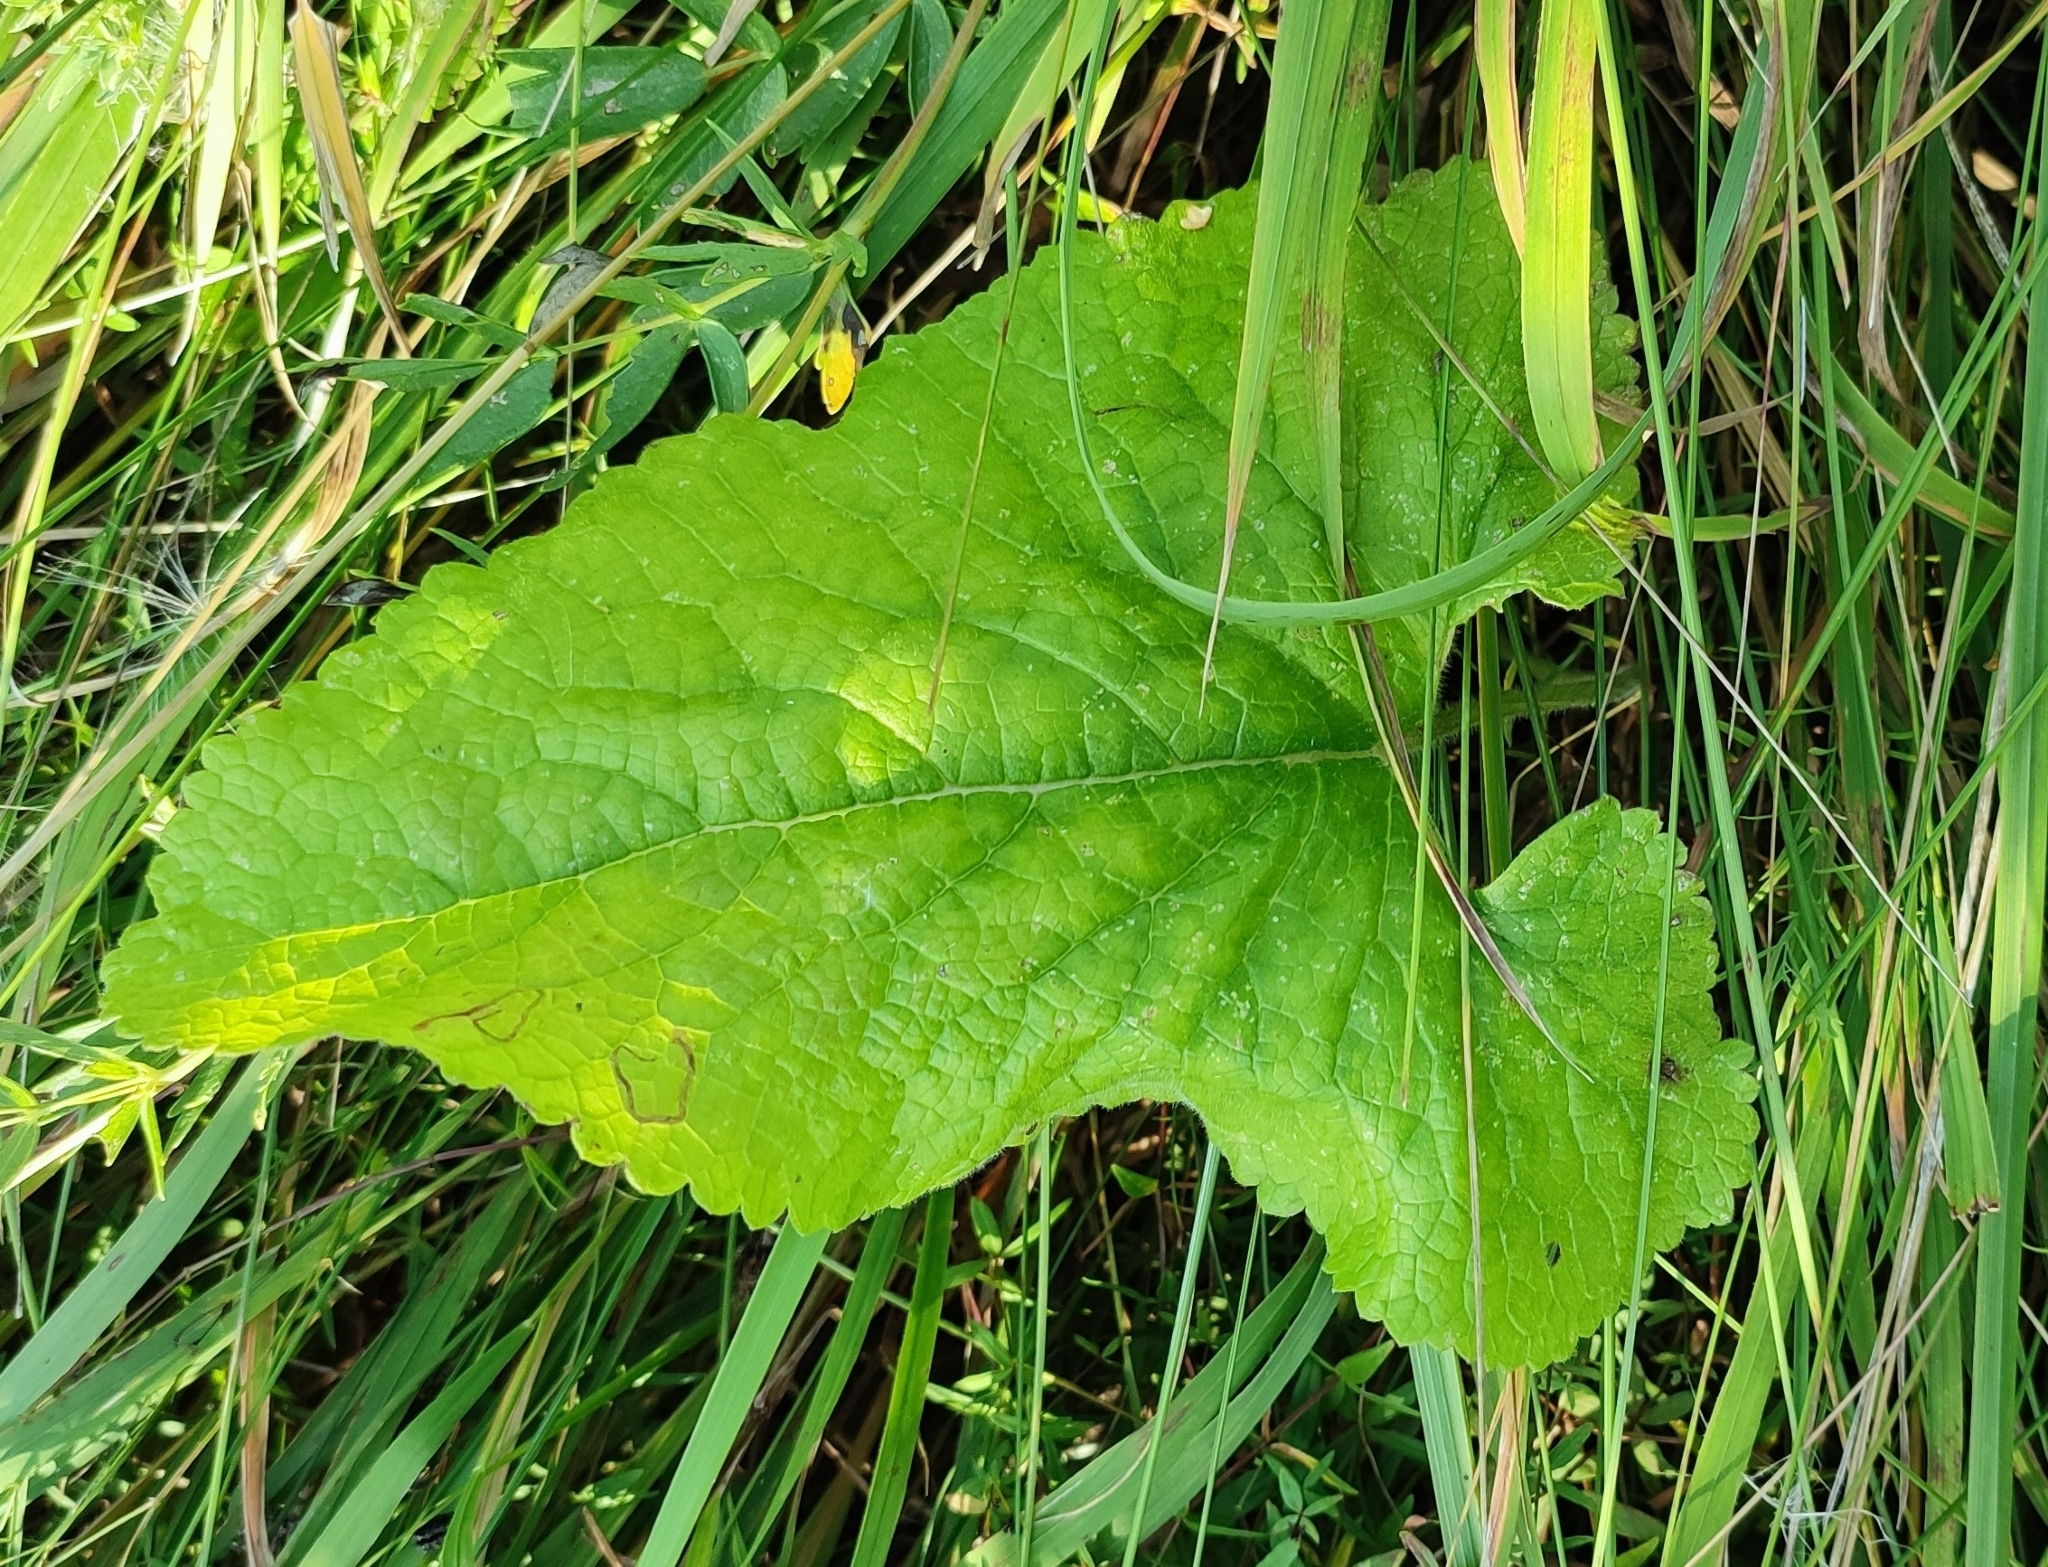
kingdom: Plantae
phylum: Tracheophyta
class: Magnoliopsida
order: Lamiales
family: Lamiaceae
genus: Phlomoides
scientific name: Phlomoides tuberosa
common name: Tuberous jerusalem sage
